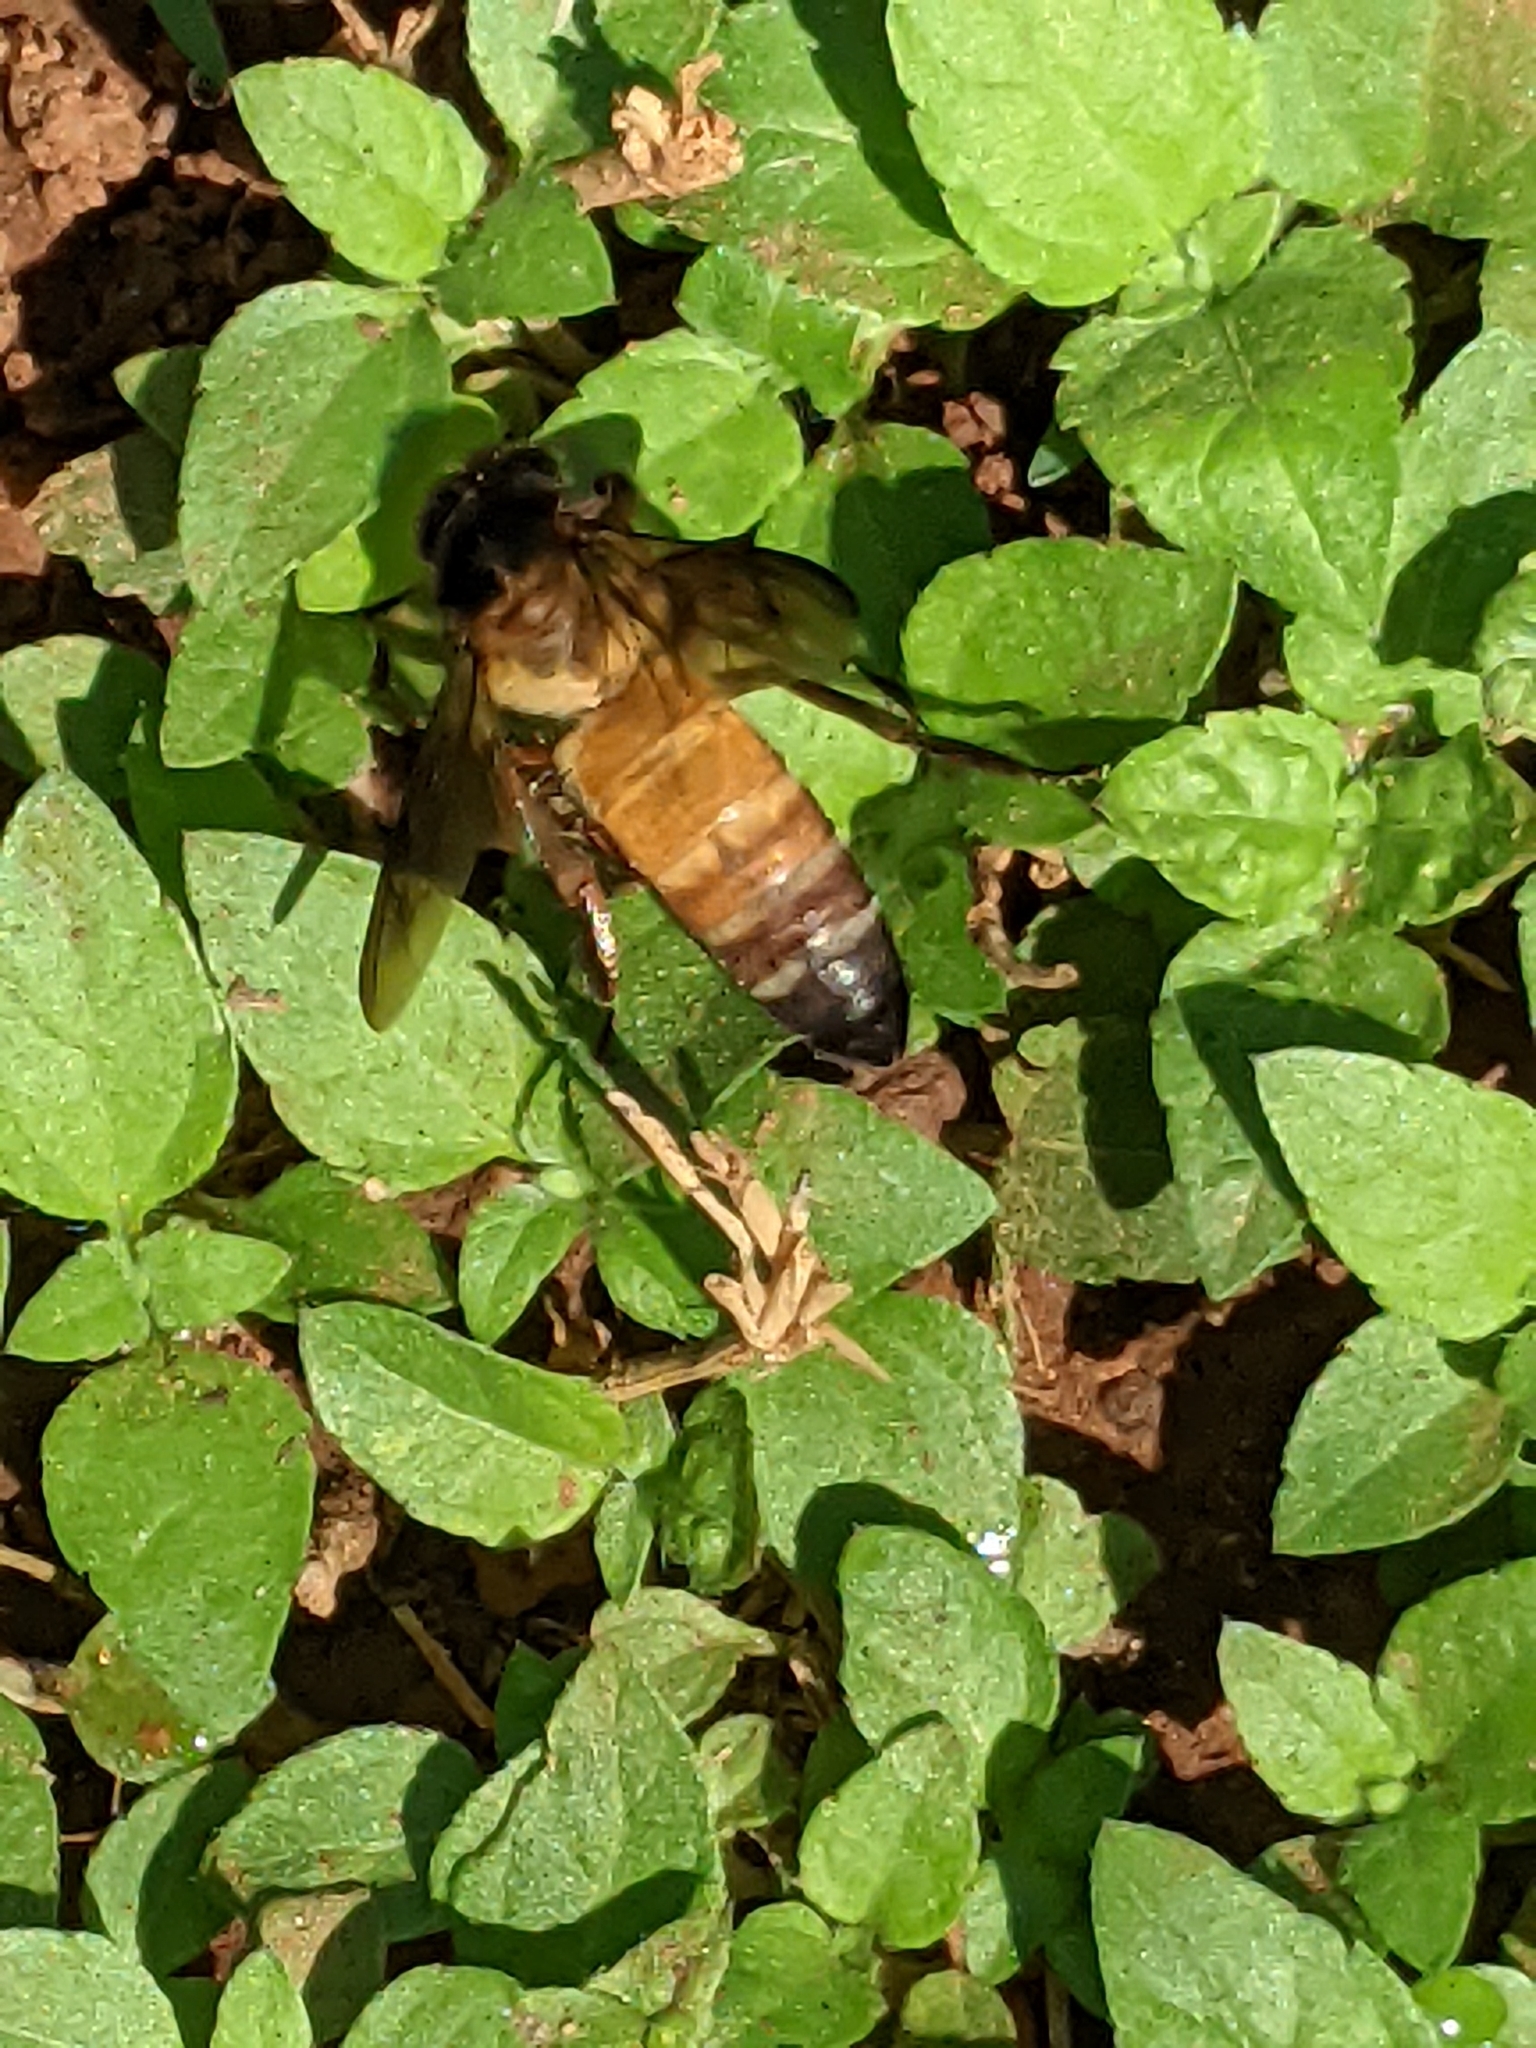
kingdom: Animalia
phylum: Arthropoda
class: Insecta
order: Hymenoptera
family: Apidae
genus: Apis
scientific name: Apis dorsata
